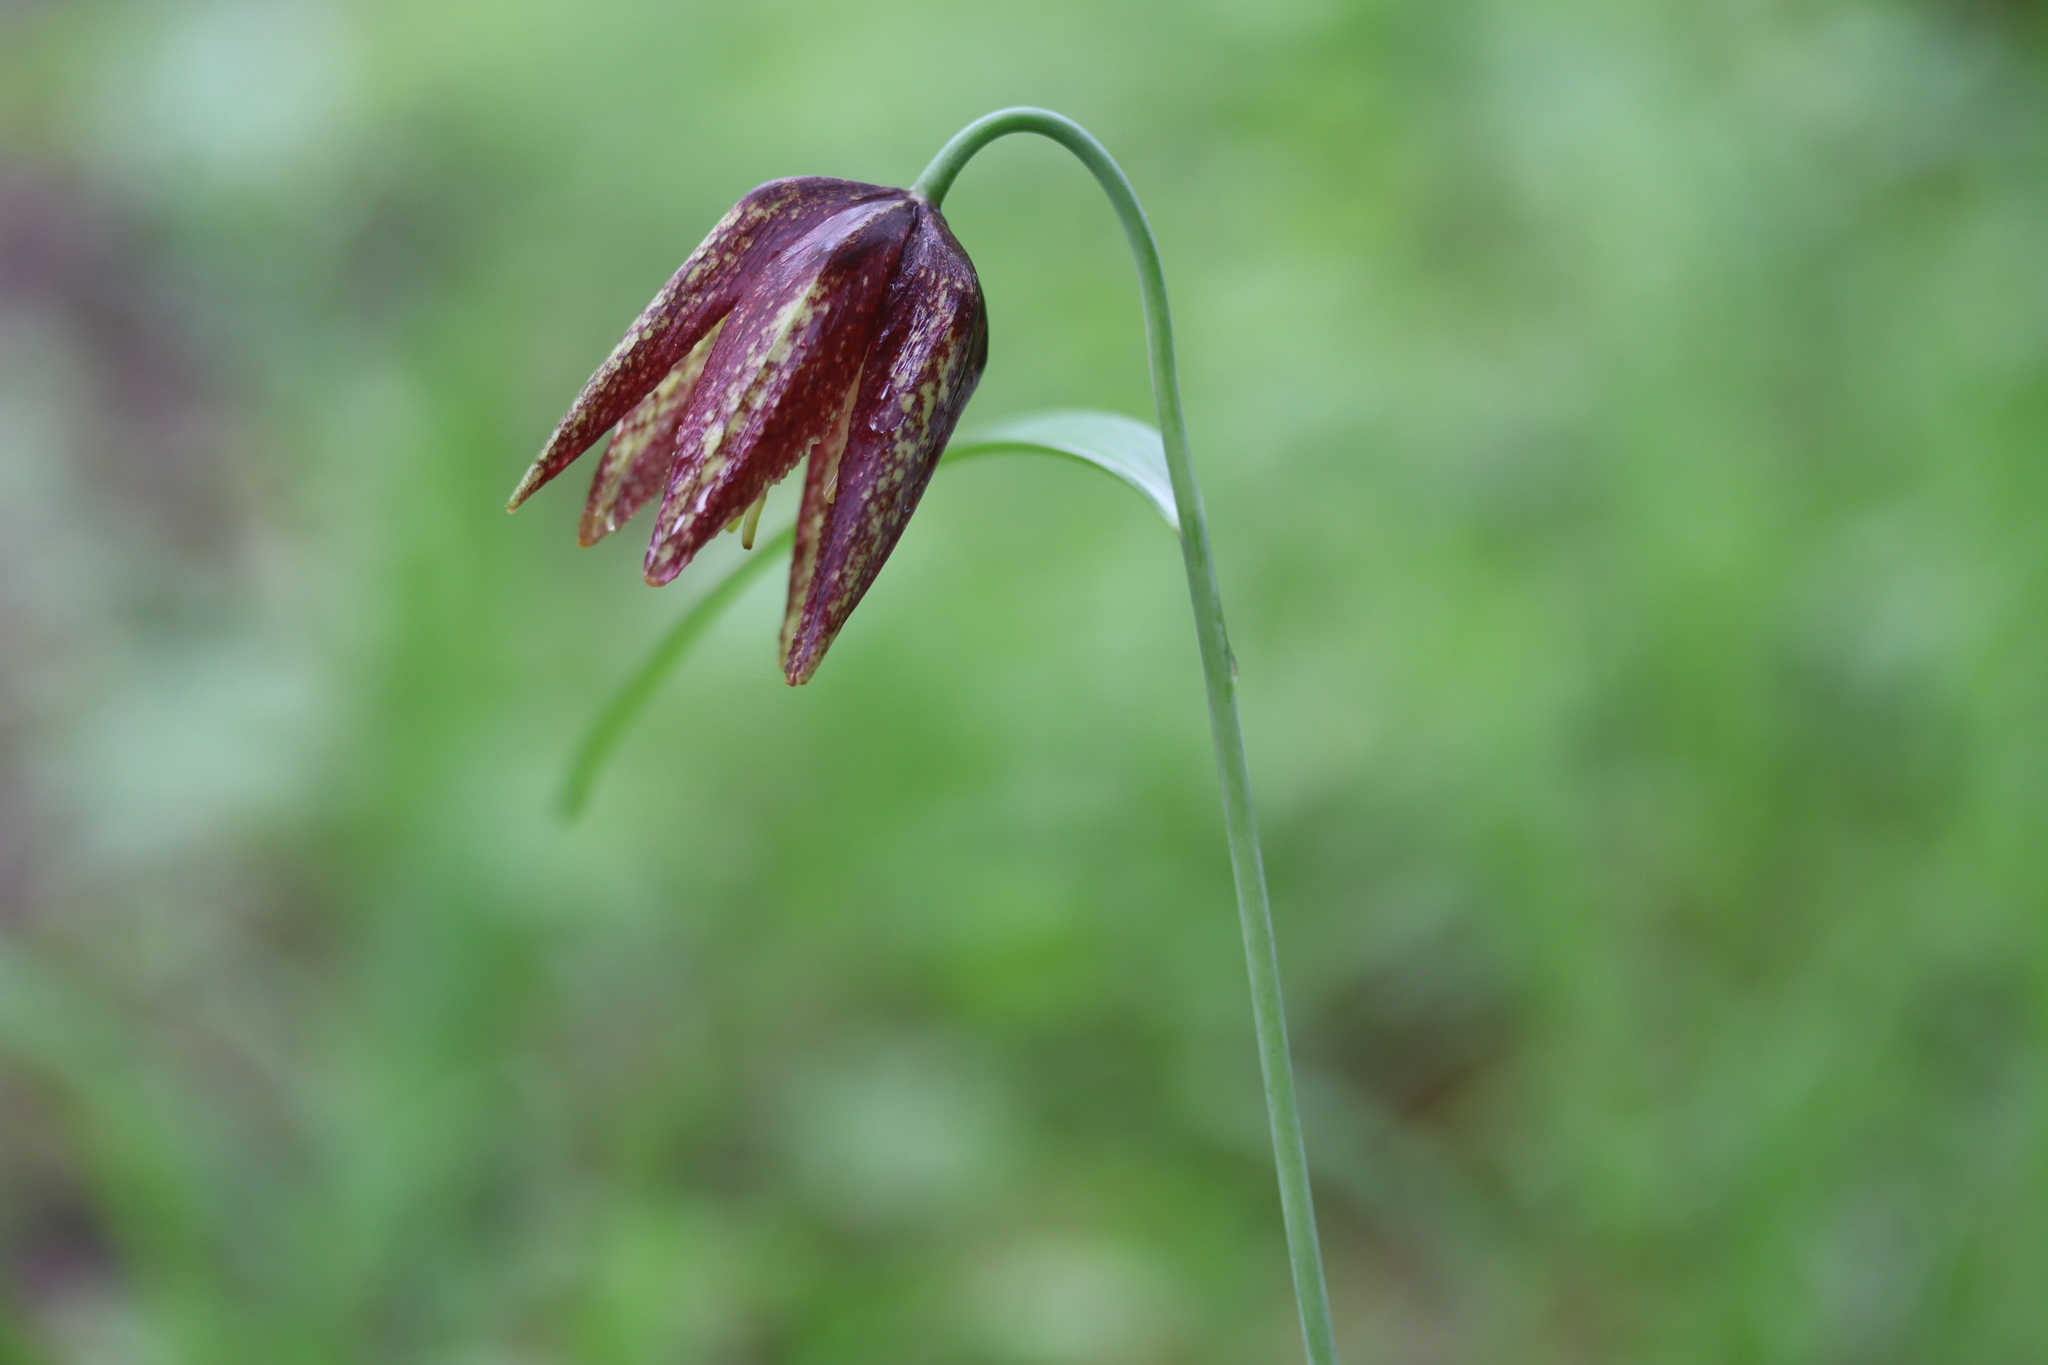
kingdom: Plantae
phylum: Tracheophyta
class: Liliopsida
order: Liliales
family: Liliaceae
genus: Fritillaria
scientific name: Fritillaria maximowiczii
